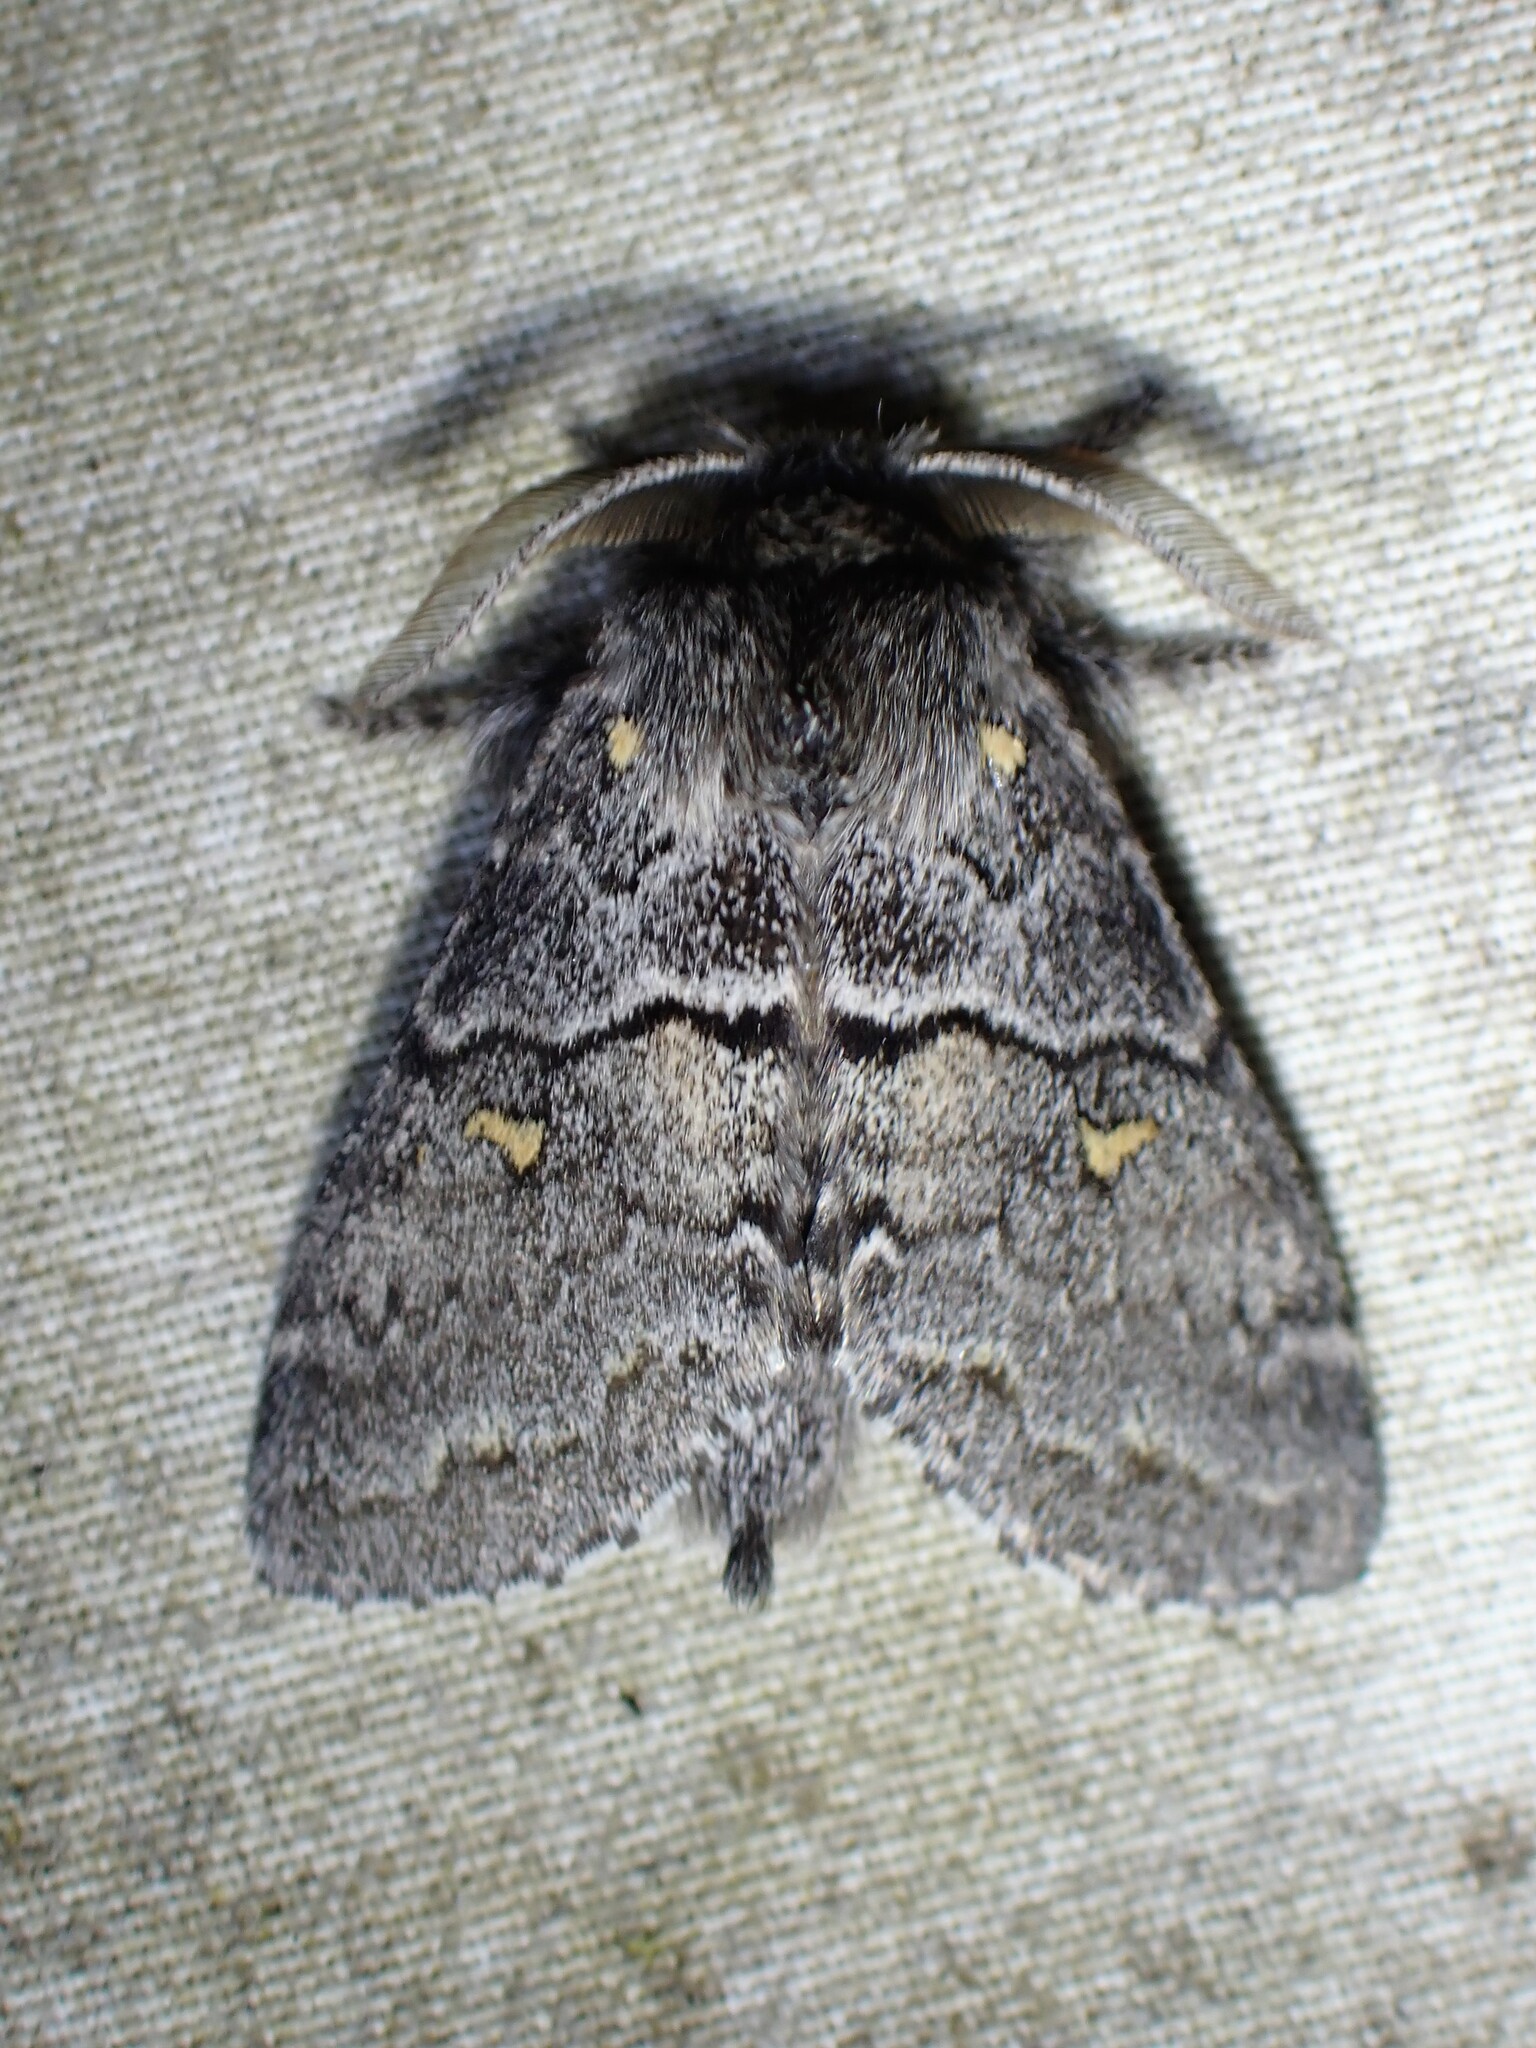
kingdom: Animalia
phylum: Arthropoda
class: Insecta
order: Lepidoptera
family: Notodontidae
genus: Gluphisia
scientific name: Gluphisia avimacula
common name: Four-spotted gluphisia moth
